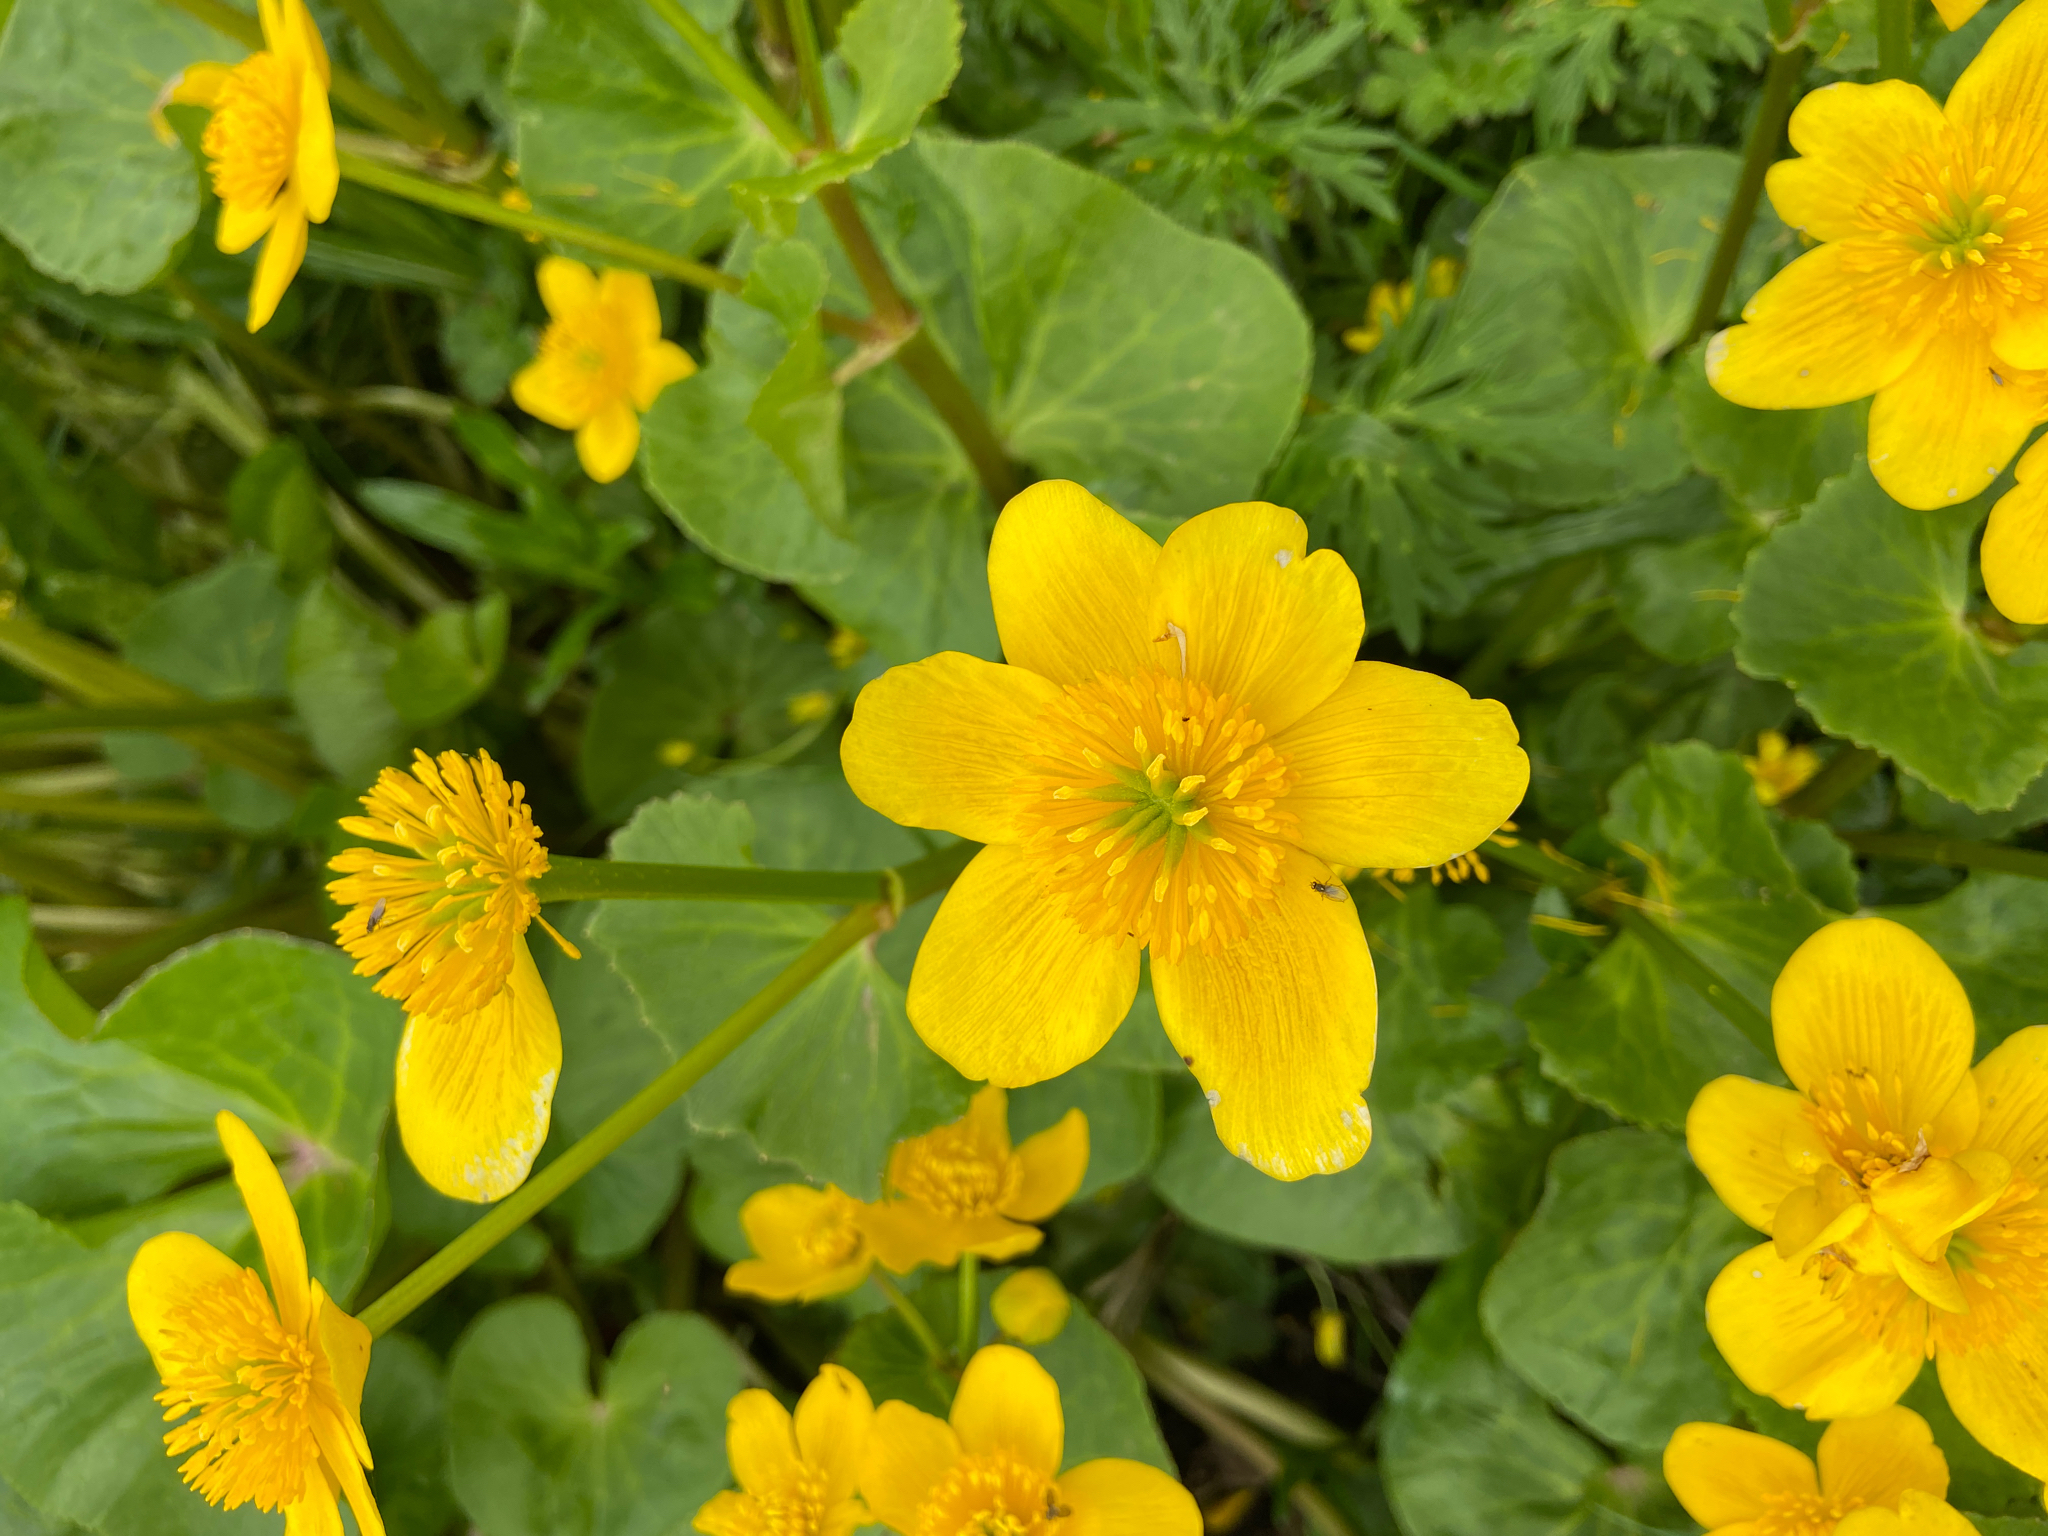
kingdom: Plantae
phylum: Tracheophyta
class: Magnoliopsida
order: Ranunculales
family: Ranunculaceae
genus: Caltha
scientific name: Caltha palustris
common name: Marsh marigold
